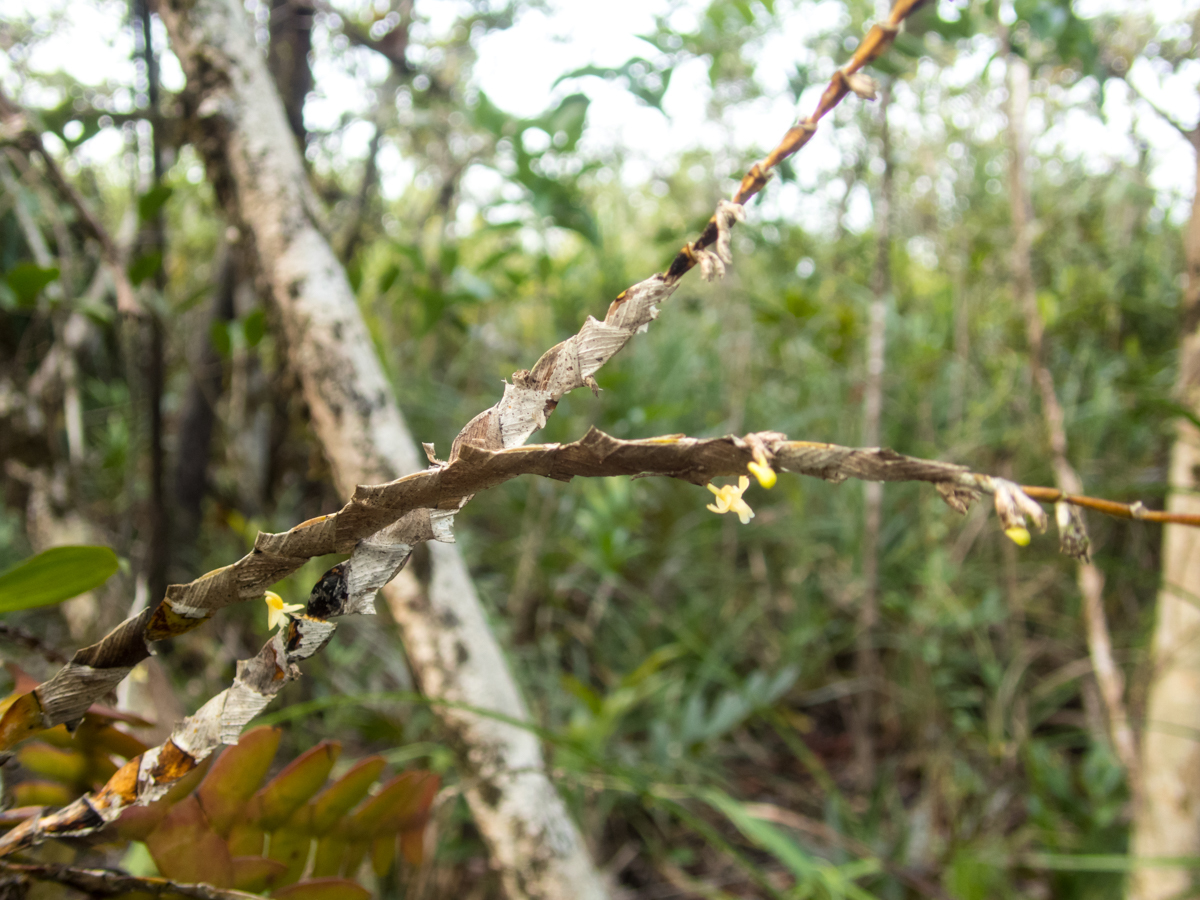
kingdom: Plantae
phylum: Tracheophyta
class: Liliopsida
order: Asparagales
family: Orchidaceae
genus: Dendrobium
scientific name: Dendrobium aloifolium
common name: Aloe-like dendrobium
